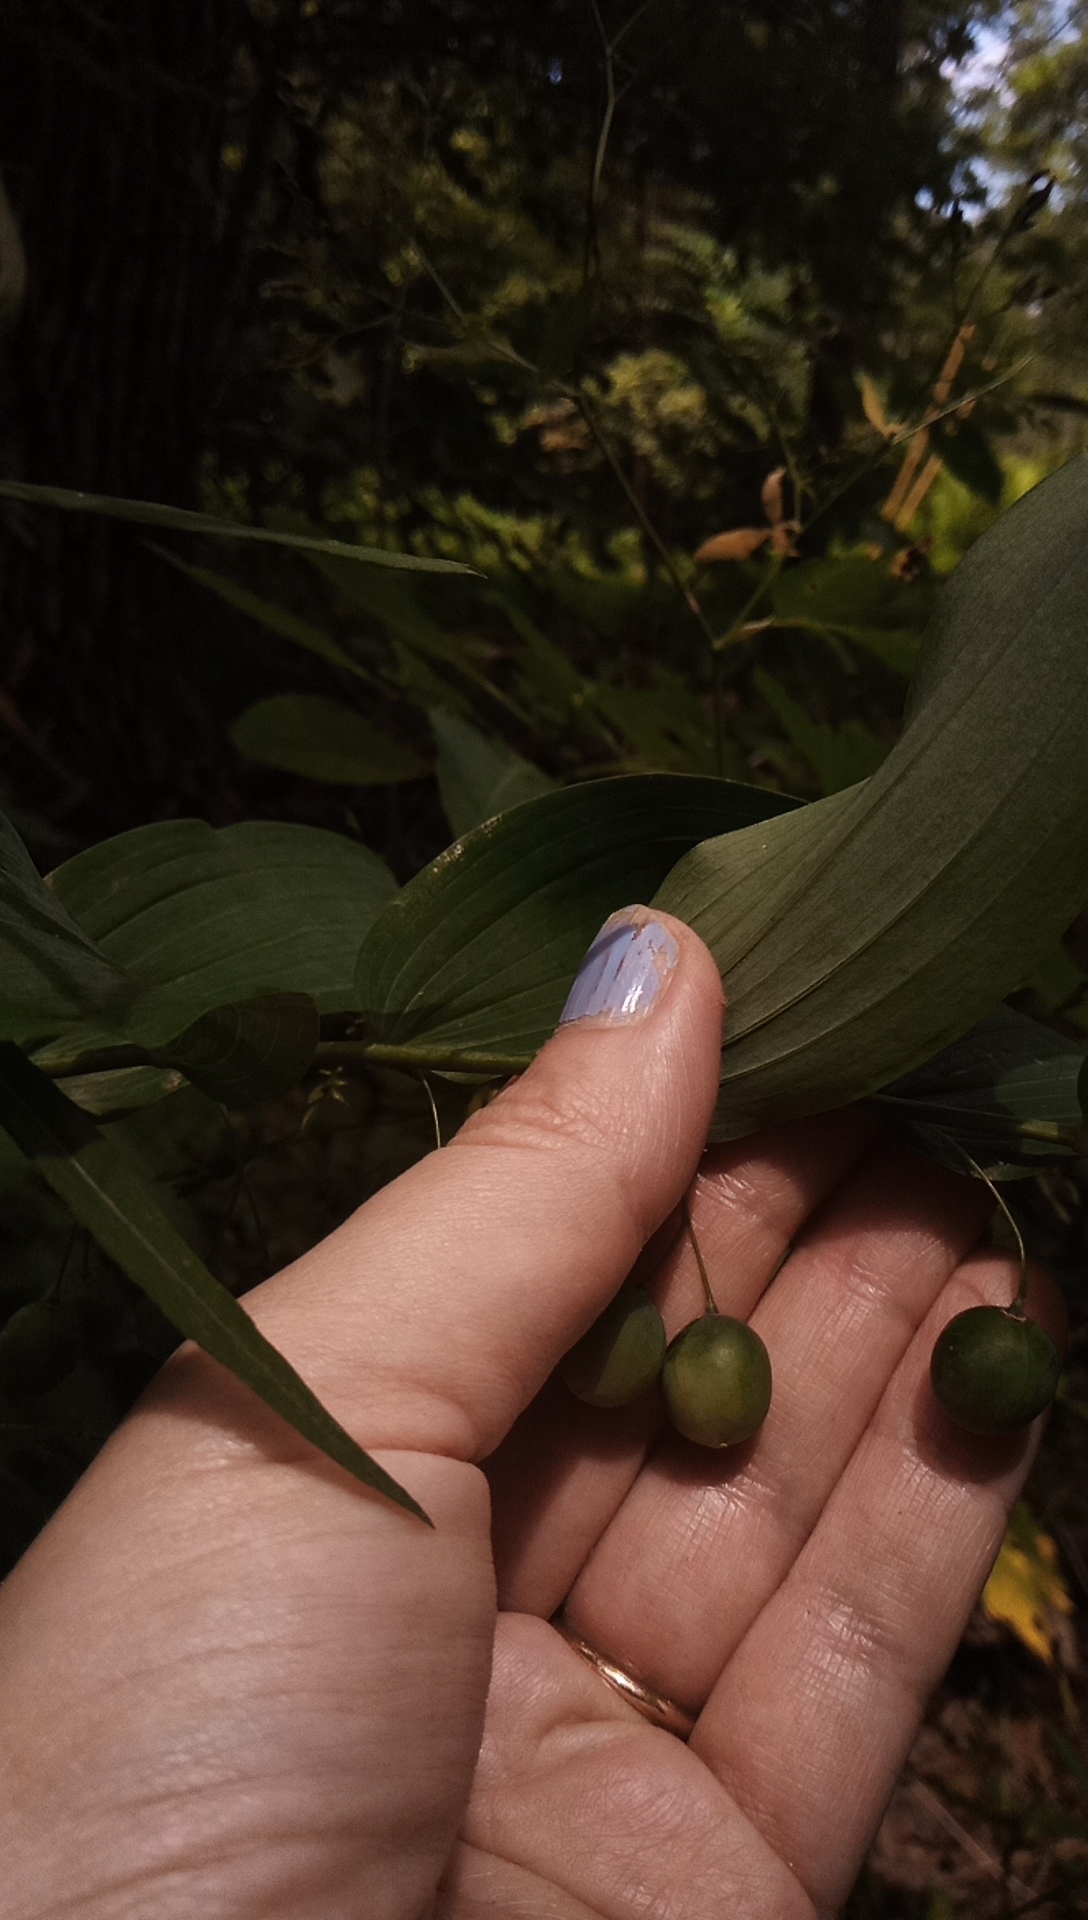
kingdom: Plantae
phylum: Tracheophyta
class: Liliopsida
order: Asparagales
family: Asparagaceae
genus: Polygonatum
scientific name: Polygonatum biflorum
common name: American solomon's-seal
